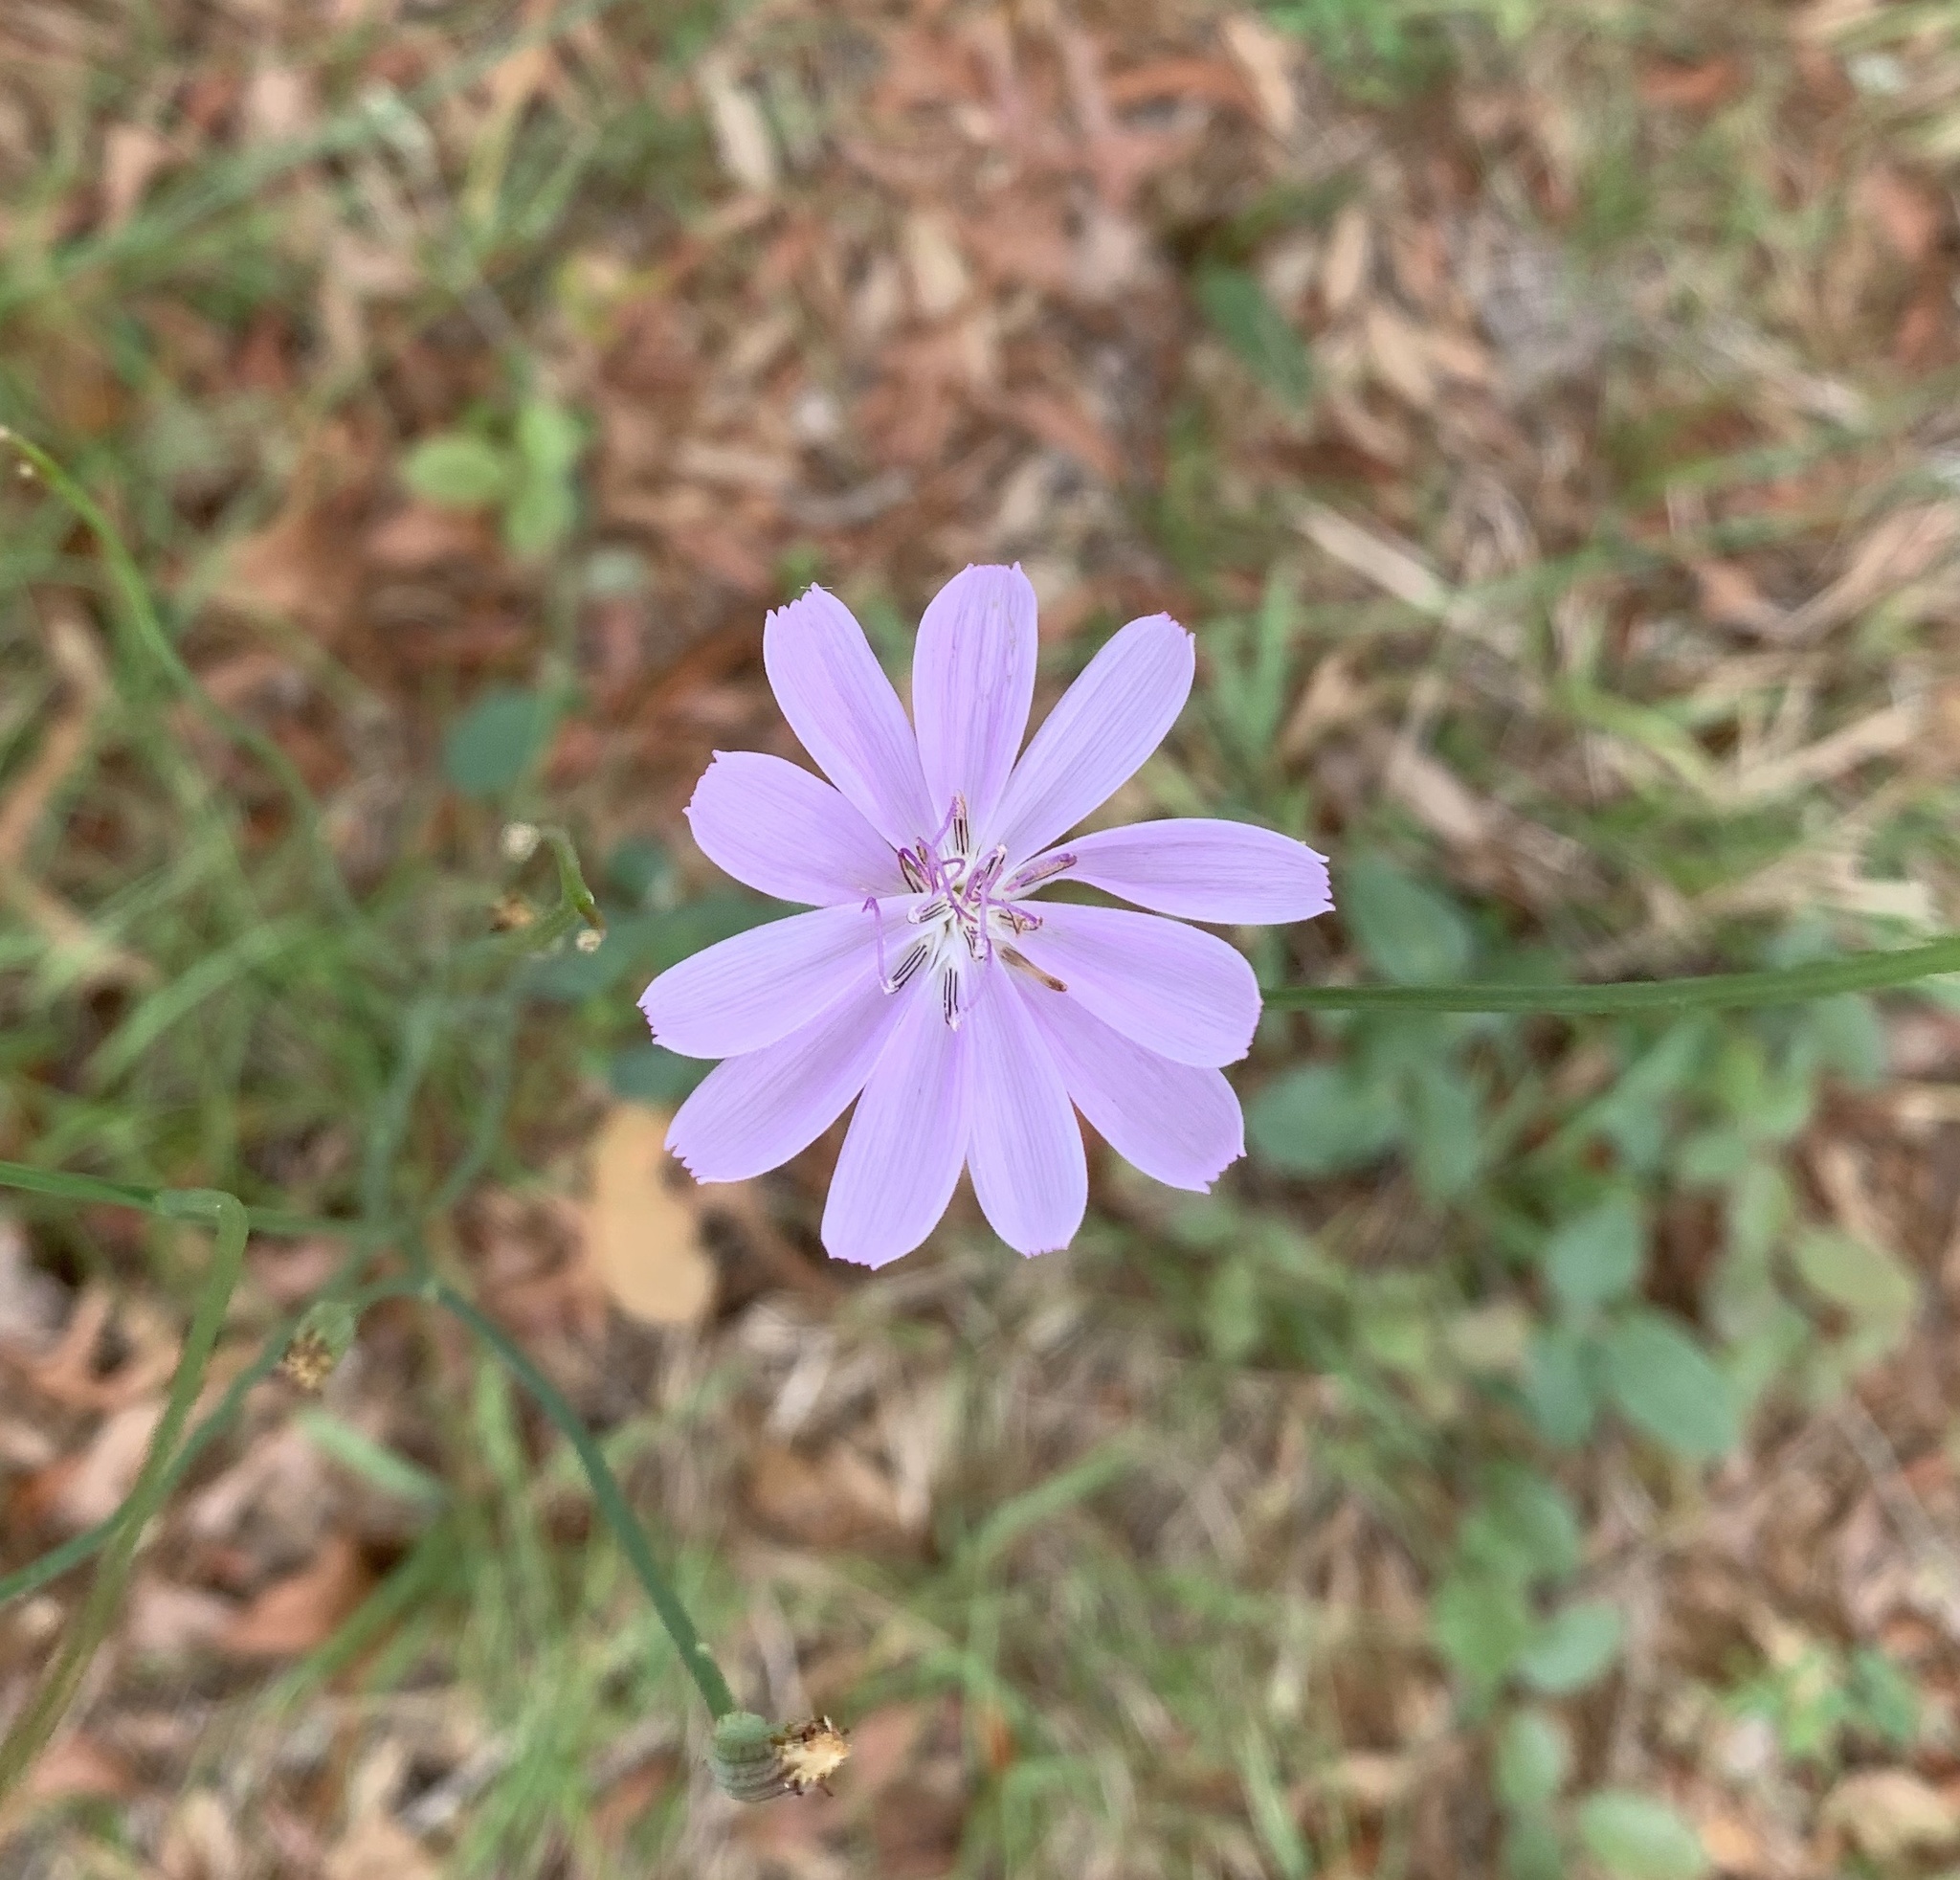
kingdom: Plantae
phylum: Tracheophyta
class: Magnoliopsida
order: Asterales
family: Asteraceae
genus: Lygodesmia
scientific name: Lygodesmia aphylla
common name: Rose-rush
